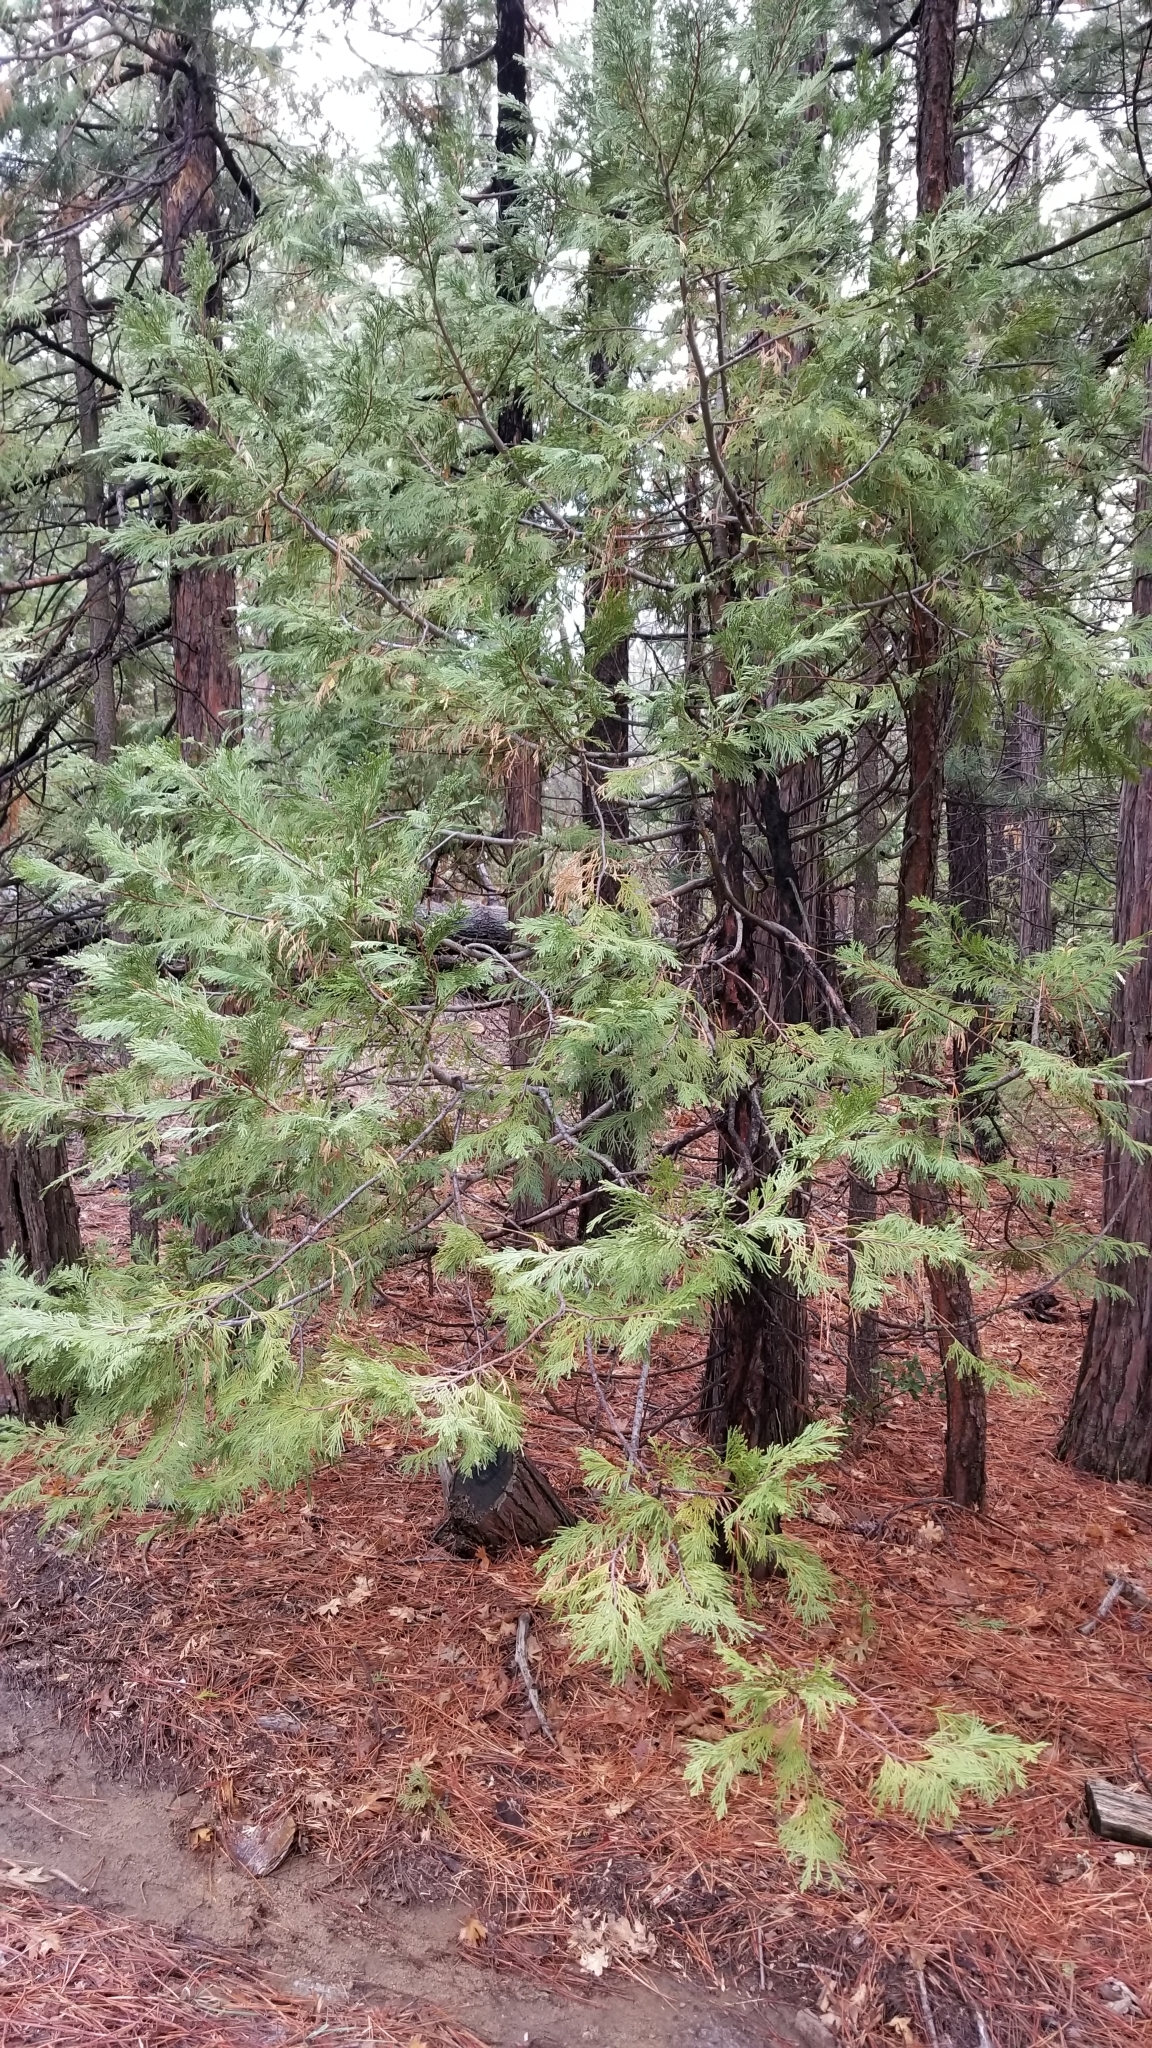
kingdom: Plantae
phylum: Tracheophyta
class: Pinopsida
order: Pinales
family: Cupressaceae
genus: Calocedrus
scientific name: Calocedrus decurrens
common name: Californian incense-cedar
